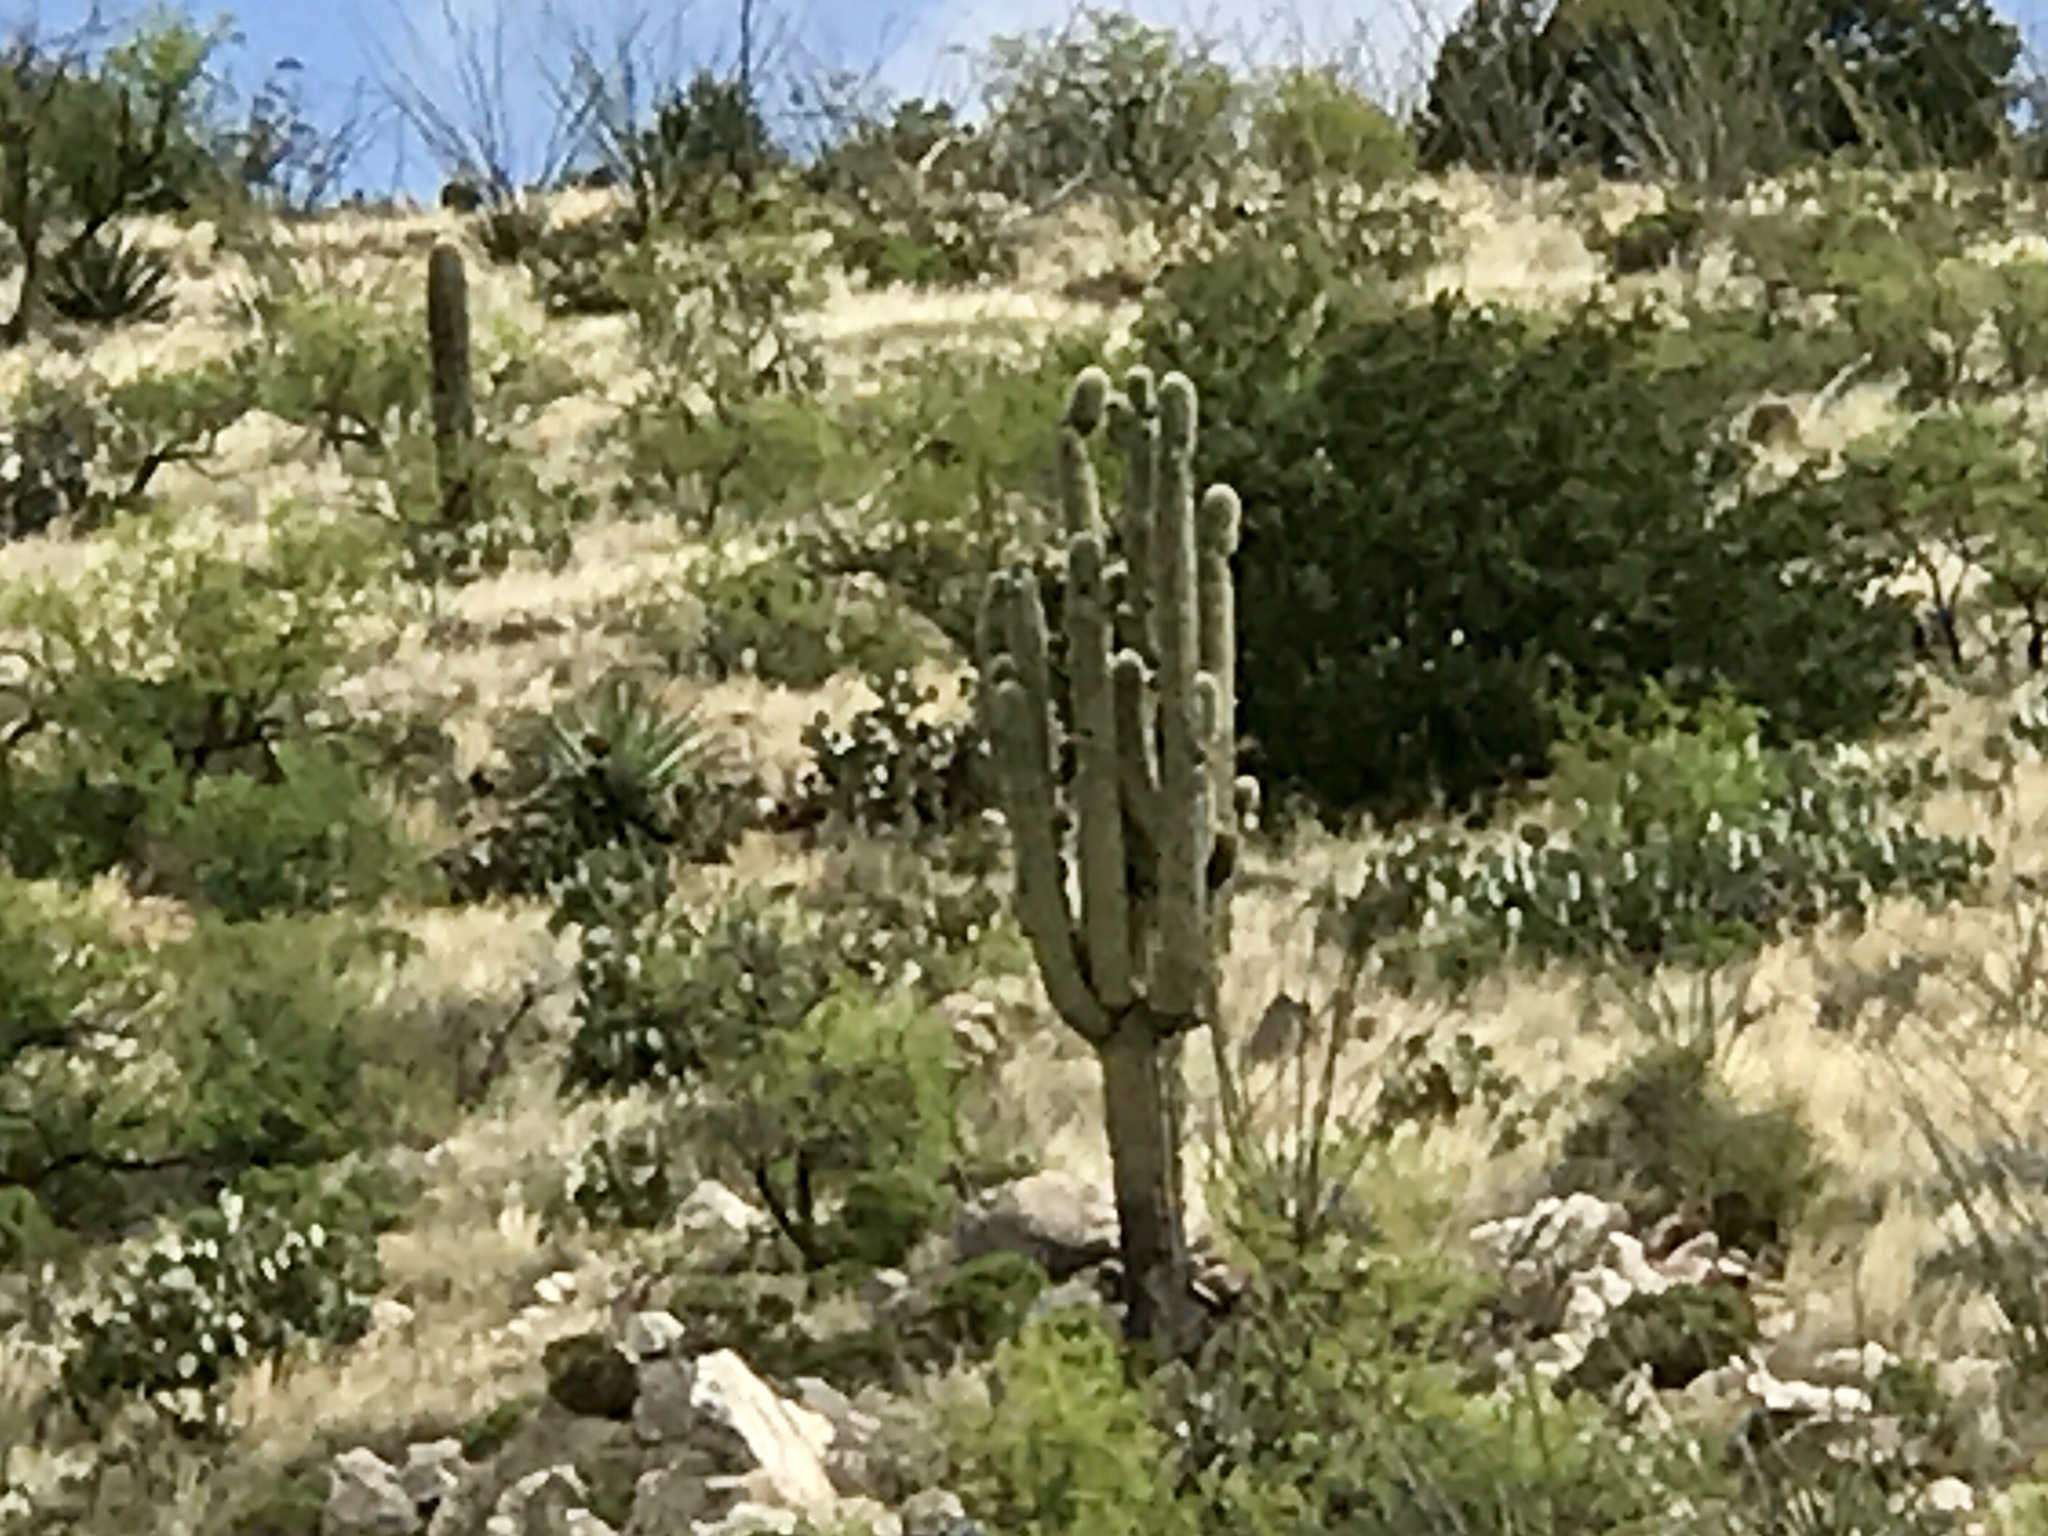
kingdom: Plantae
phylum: Tracheophyta
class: Magnoliopsida
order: Caryophyllales
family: Cactaceae
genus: Carnegiea
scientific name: Carnegiea gigantea
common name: Saguaro
